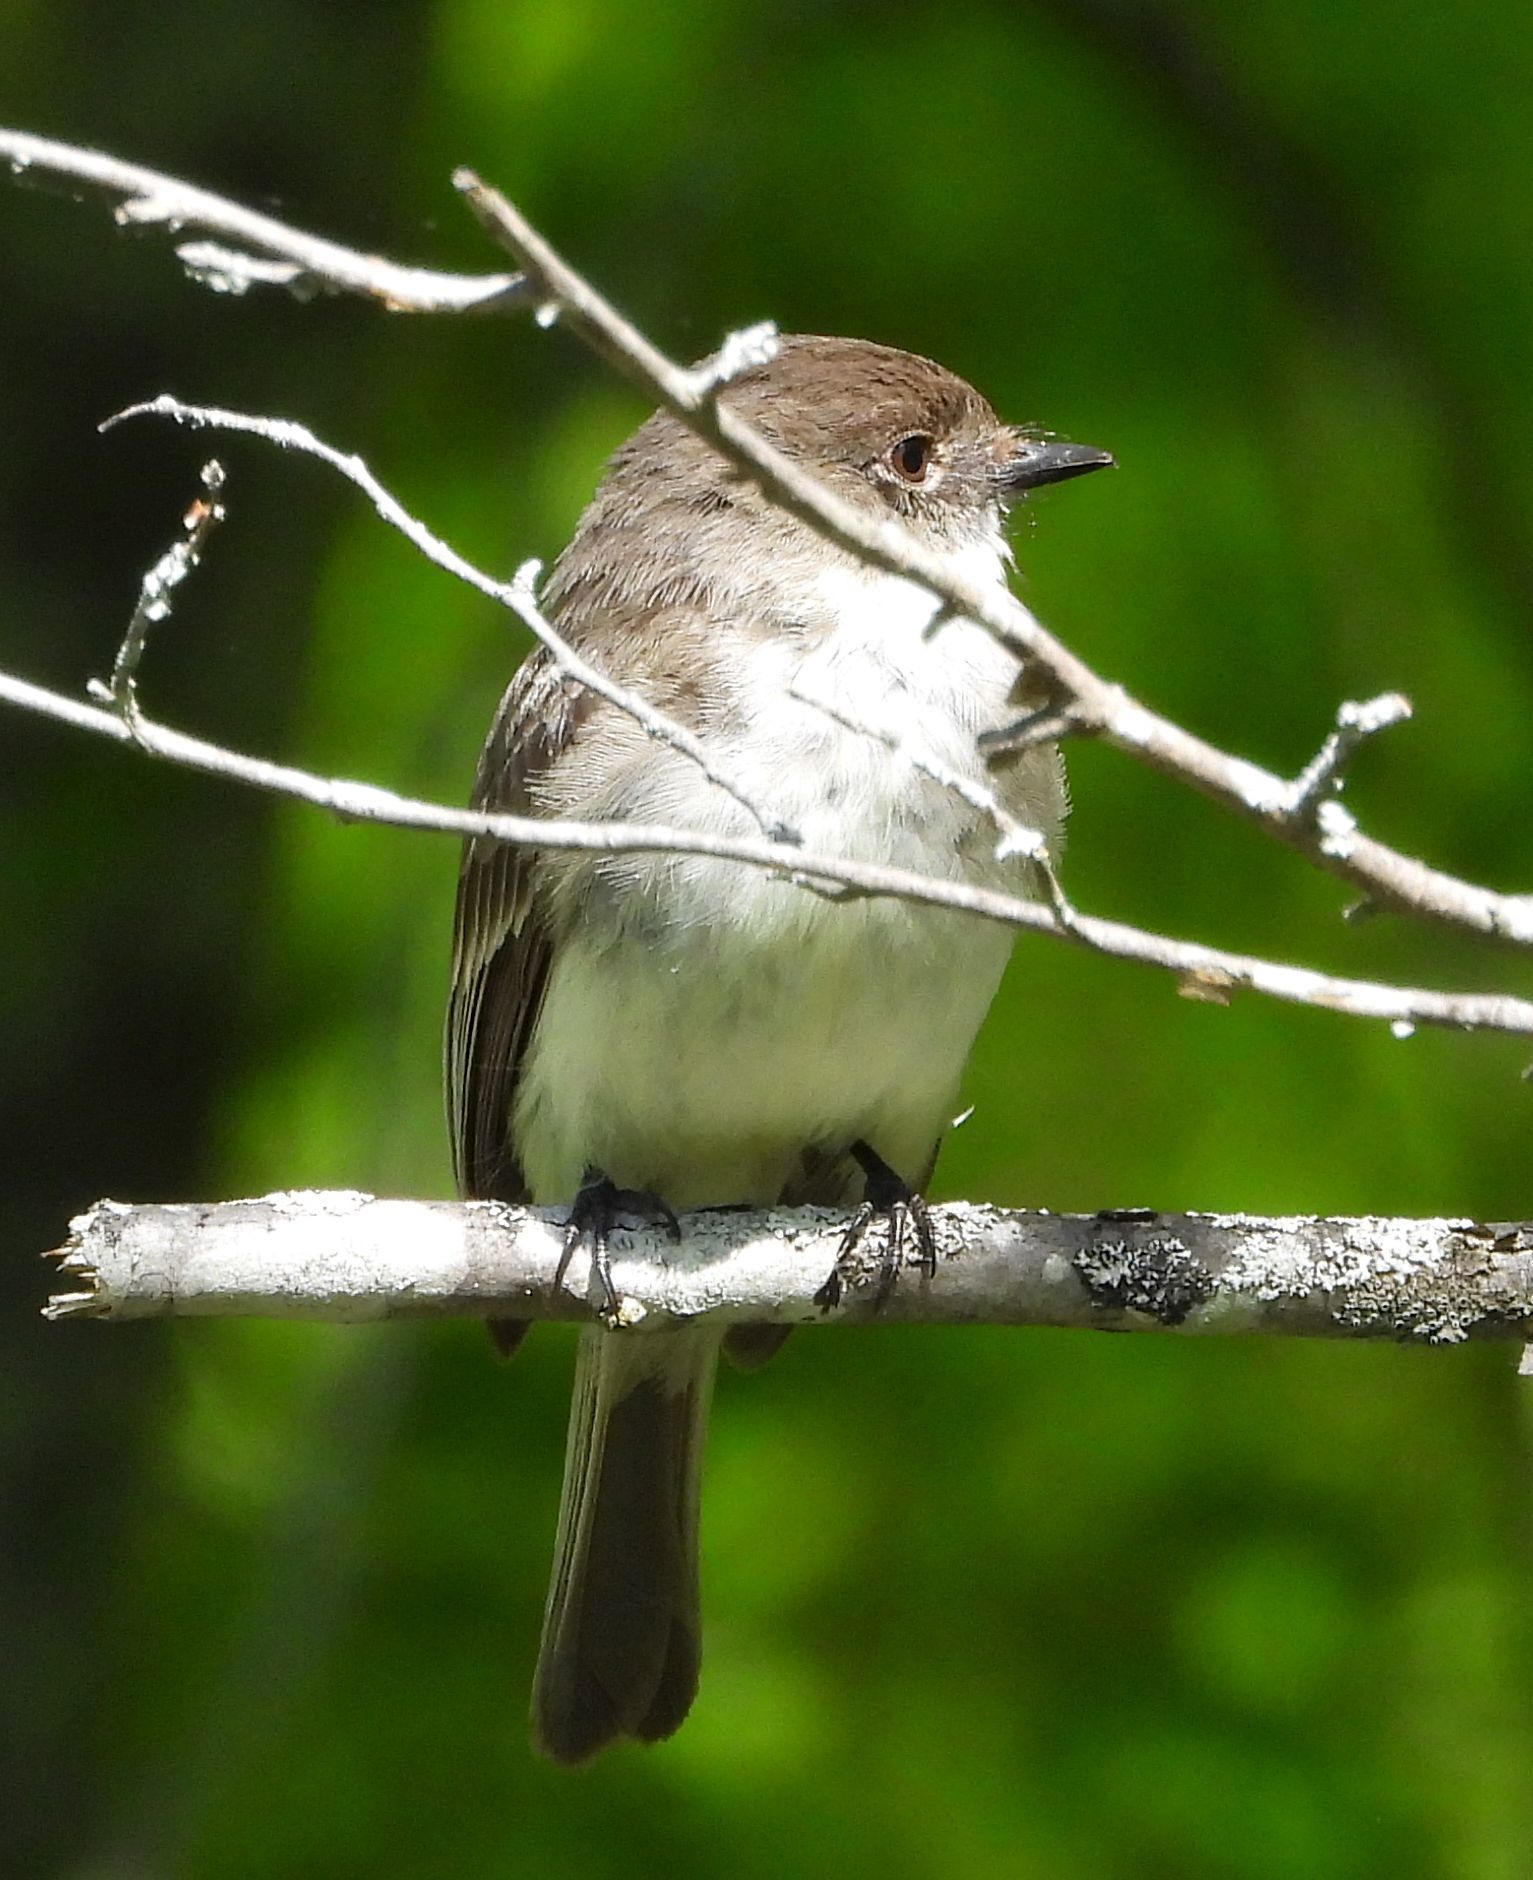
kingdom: Animalia
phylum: Chordata
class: Aves
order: Passeriformes
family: Tyrannidae
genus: Sayornis
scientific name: Sayornis phoebe
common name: Eastern phoebe
